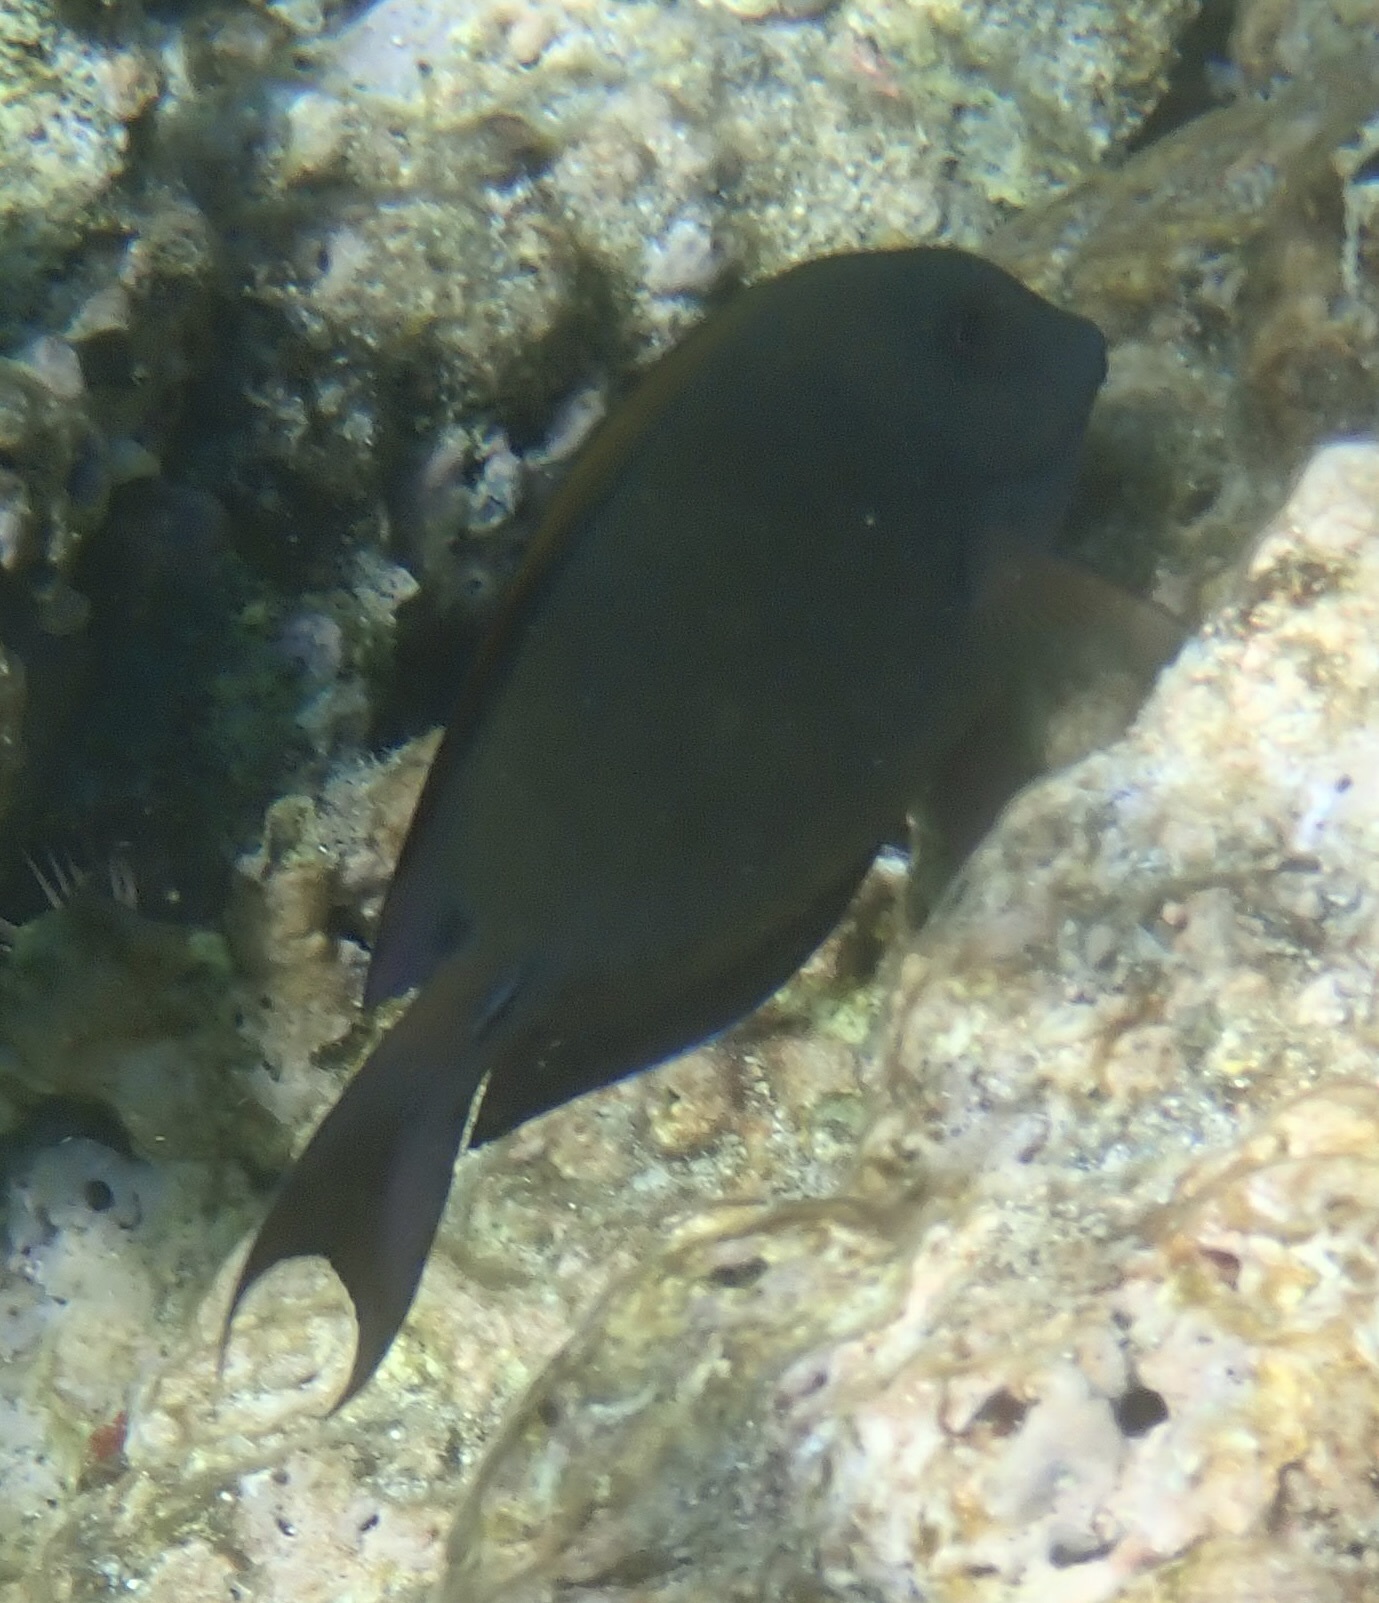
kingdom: Animalia
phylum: Chordata
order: Perciformes
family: Acanthuridae
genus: Acanthurus
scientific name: Acanthurus nigrofuscus
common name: Blackspot surgeonfish
